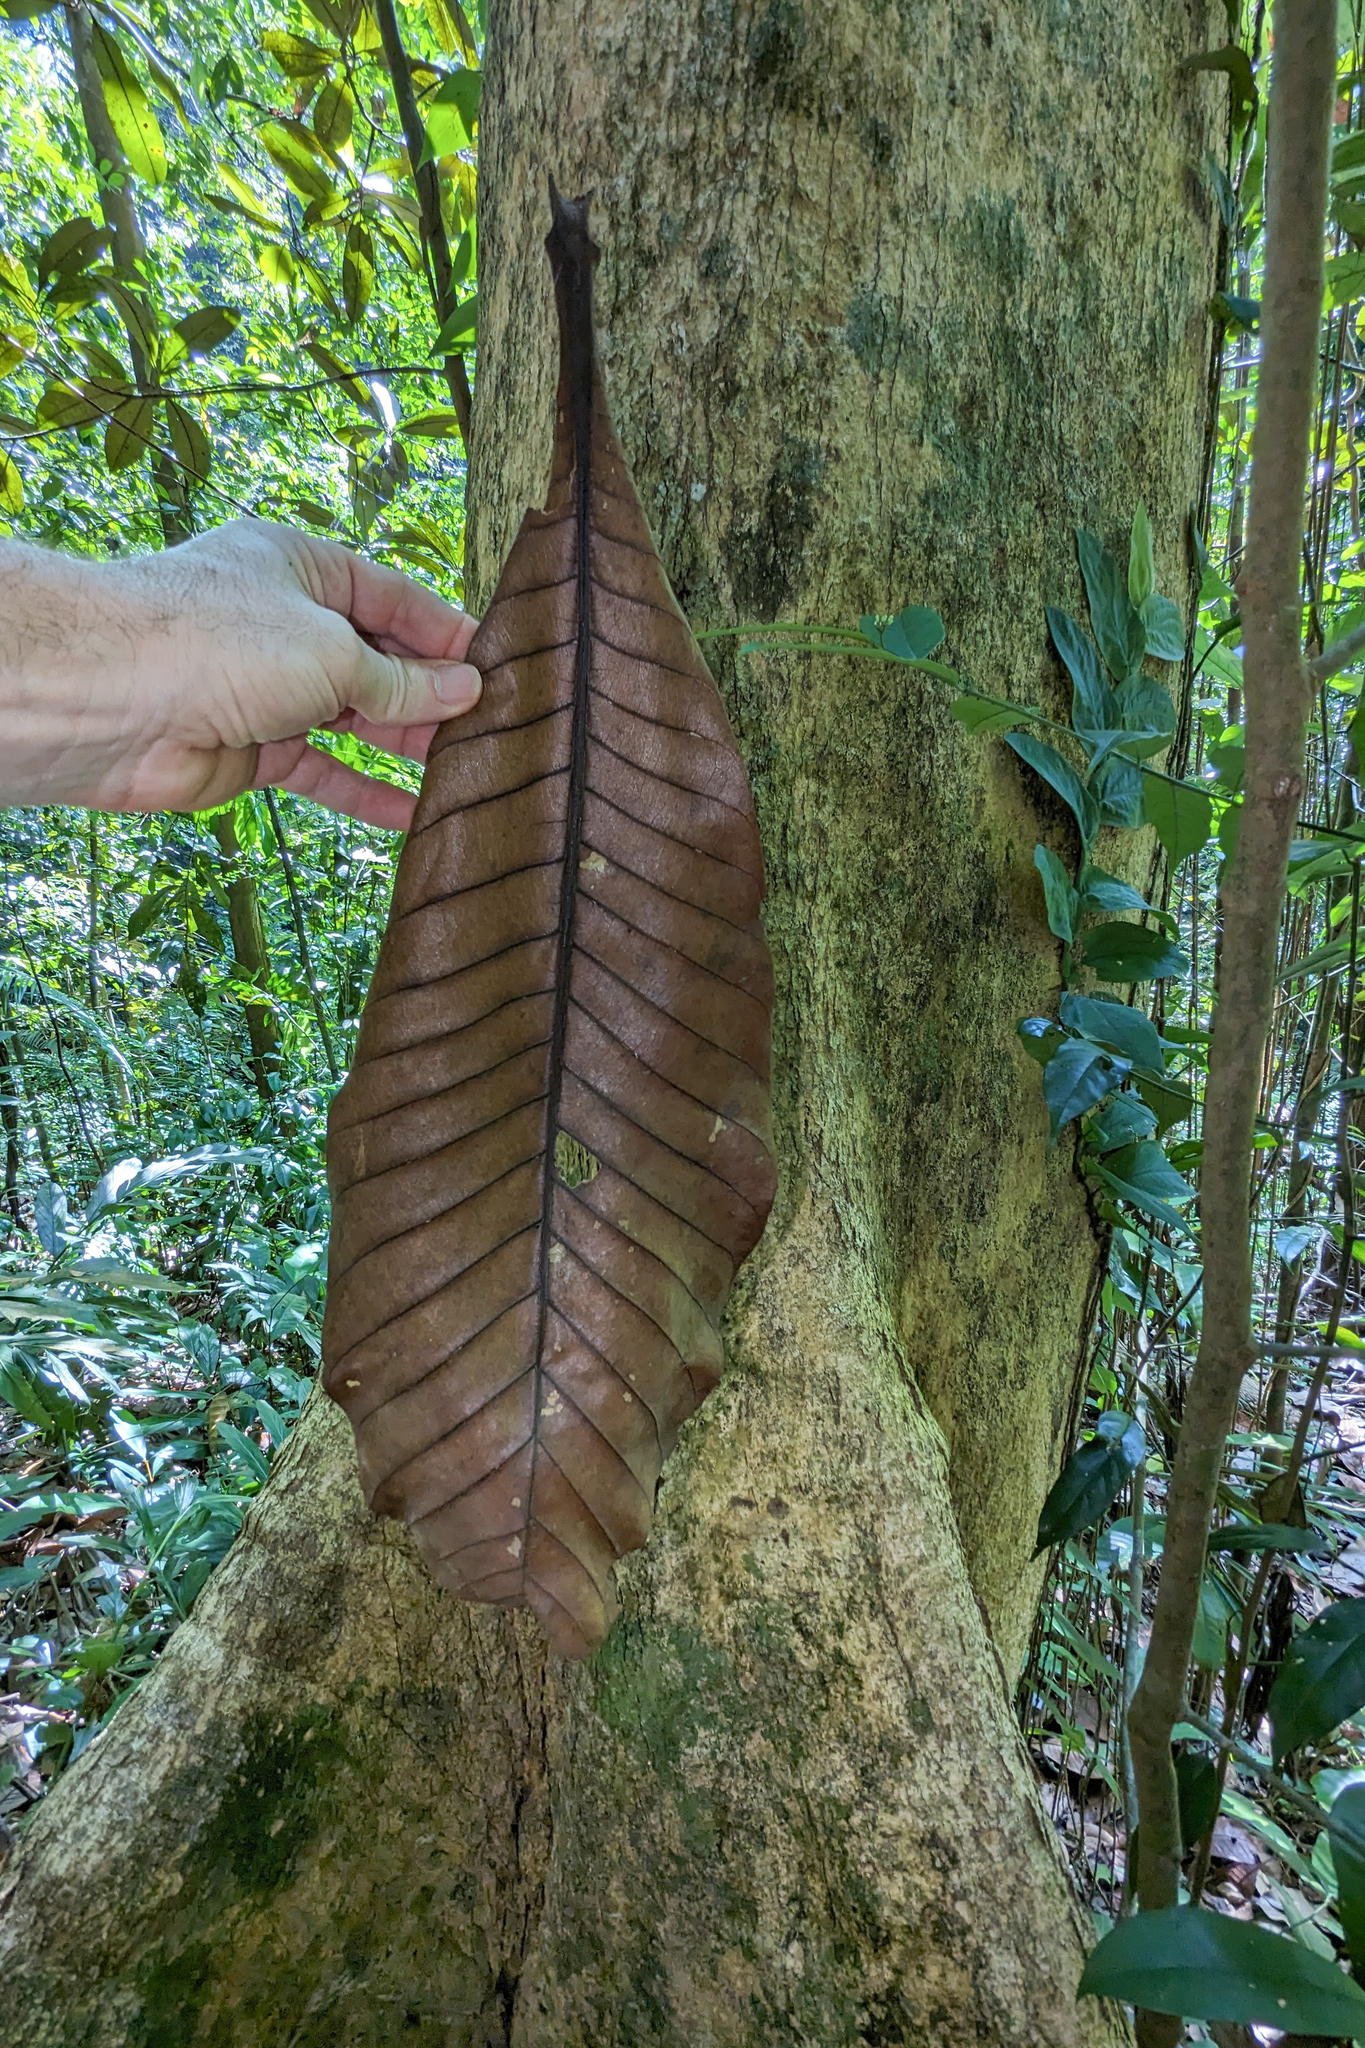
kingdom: Plantae
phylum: Tracheophyta
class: Magnoliopsida
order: Sapindales
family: Anacardiaceae
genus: Campnosperma
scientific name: Campnosperma auriculatum
